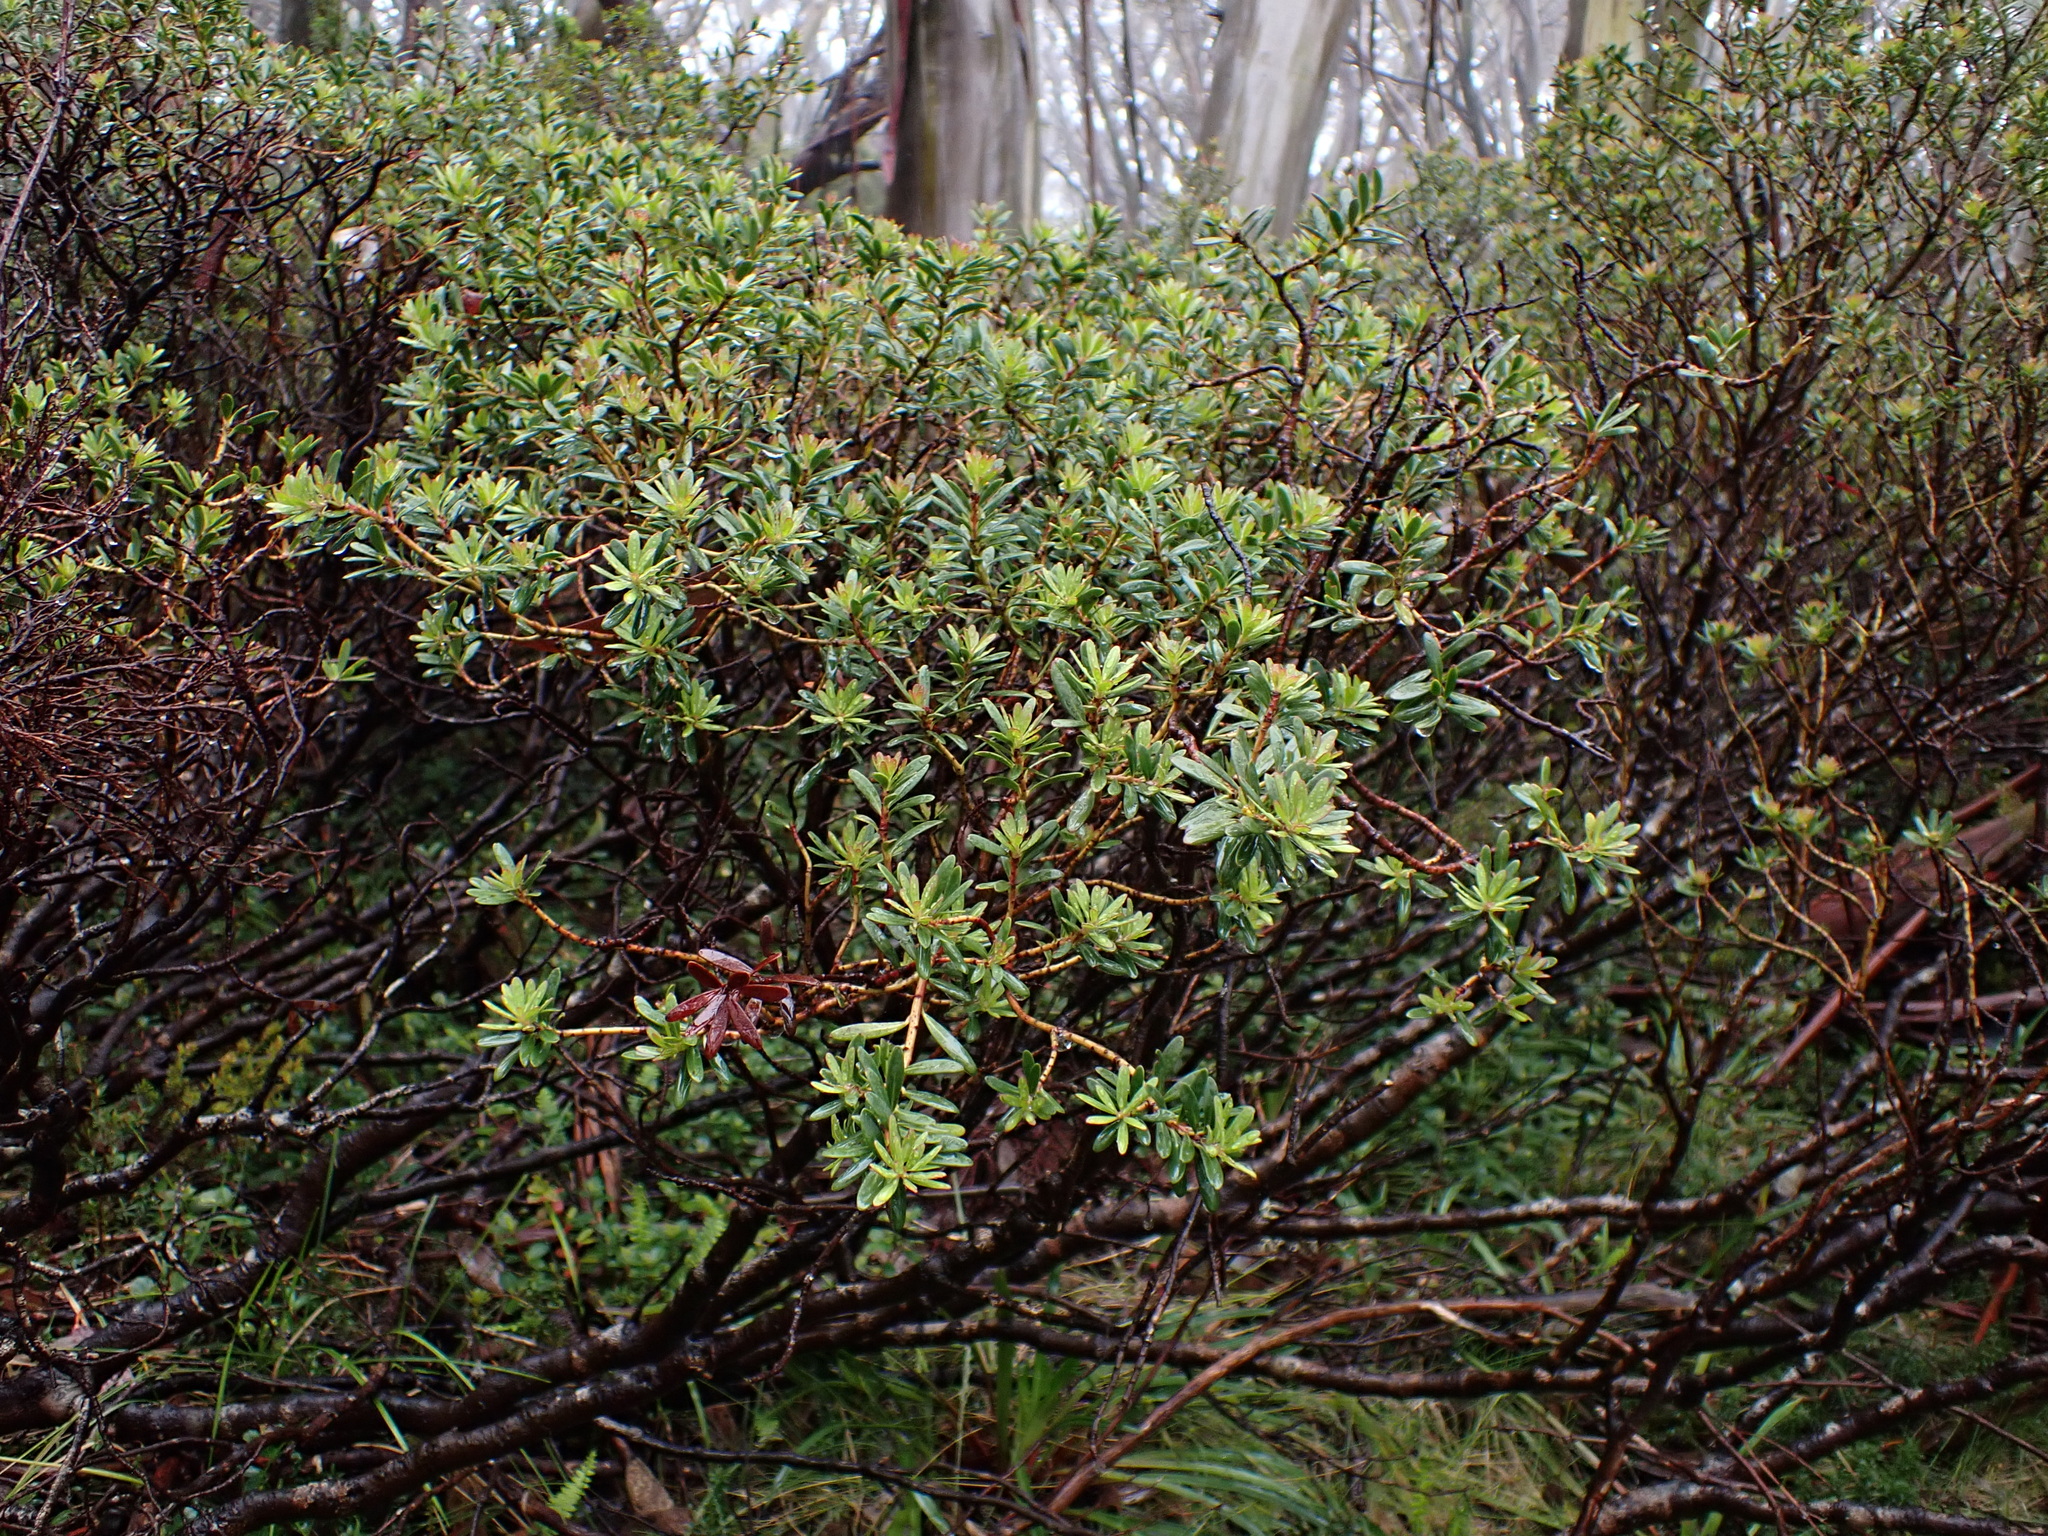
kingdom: Plantae
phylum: Tracheophyta
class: Magnoliopsida
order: Canellales
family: Winteraceae
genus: Drimys
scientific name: Drimys vickeriana
